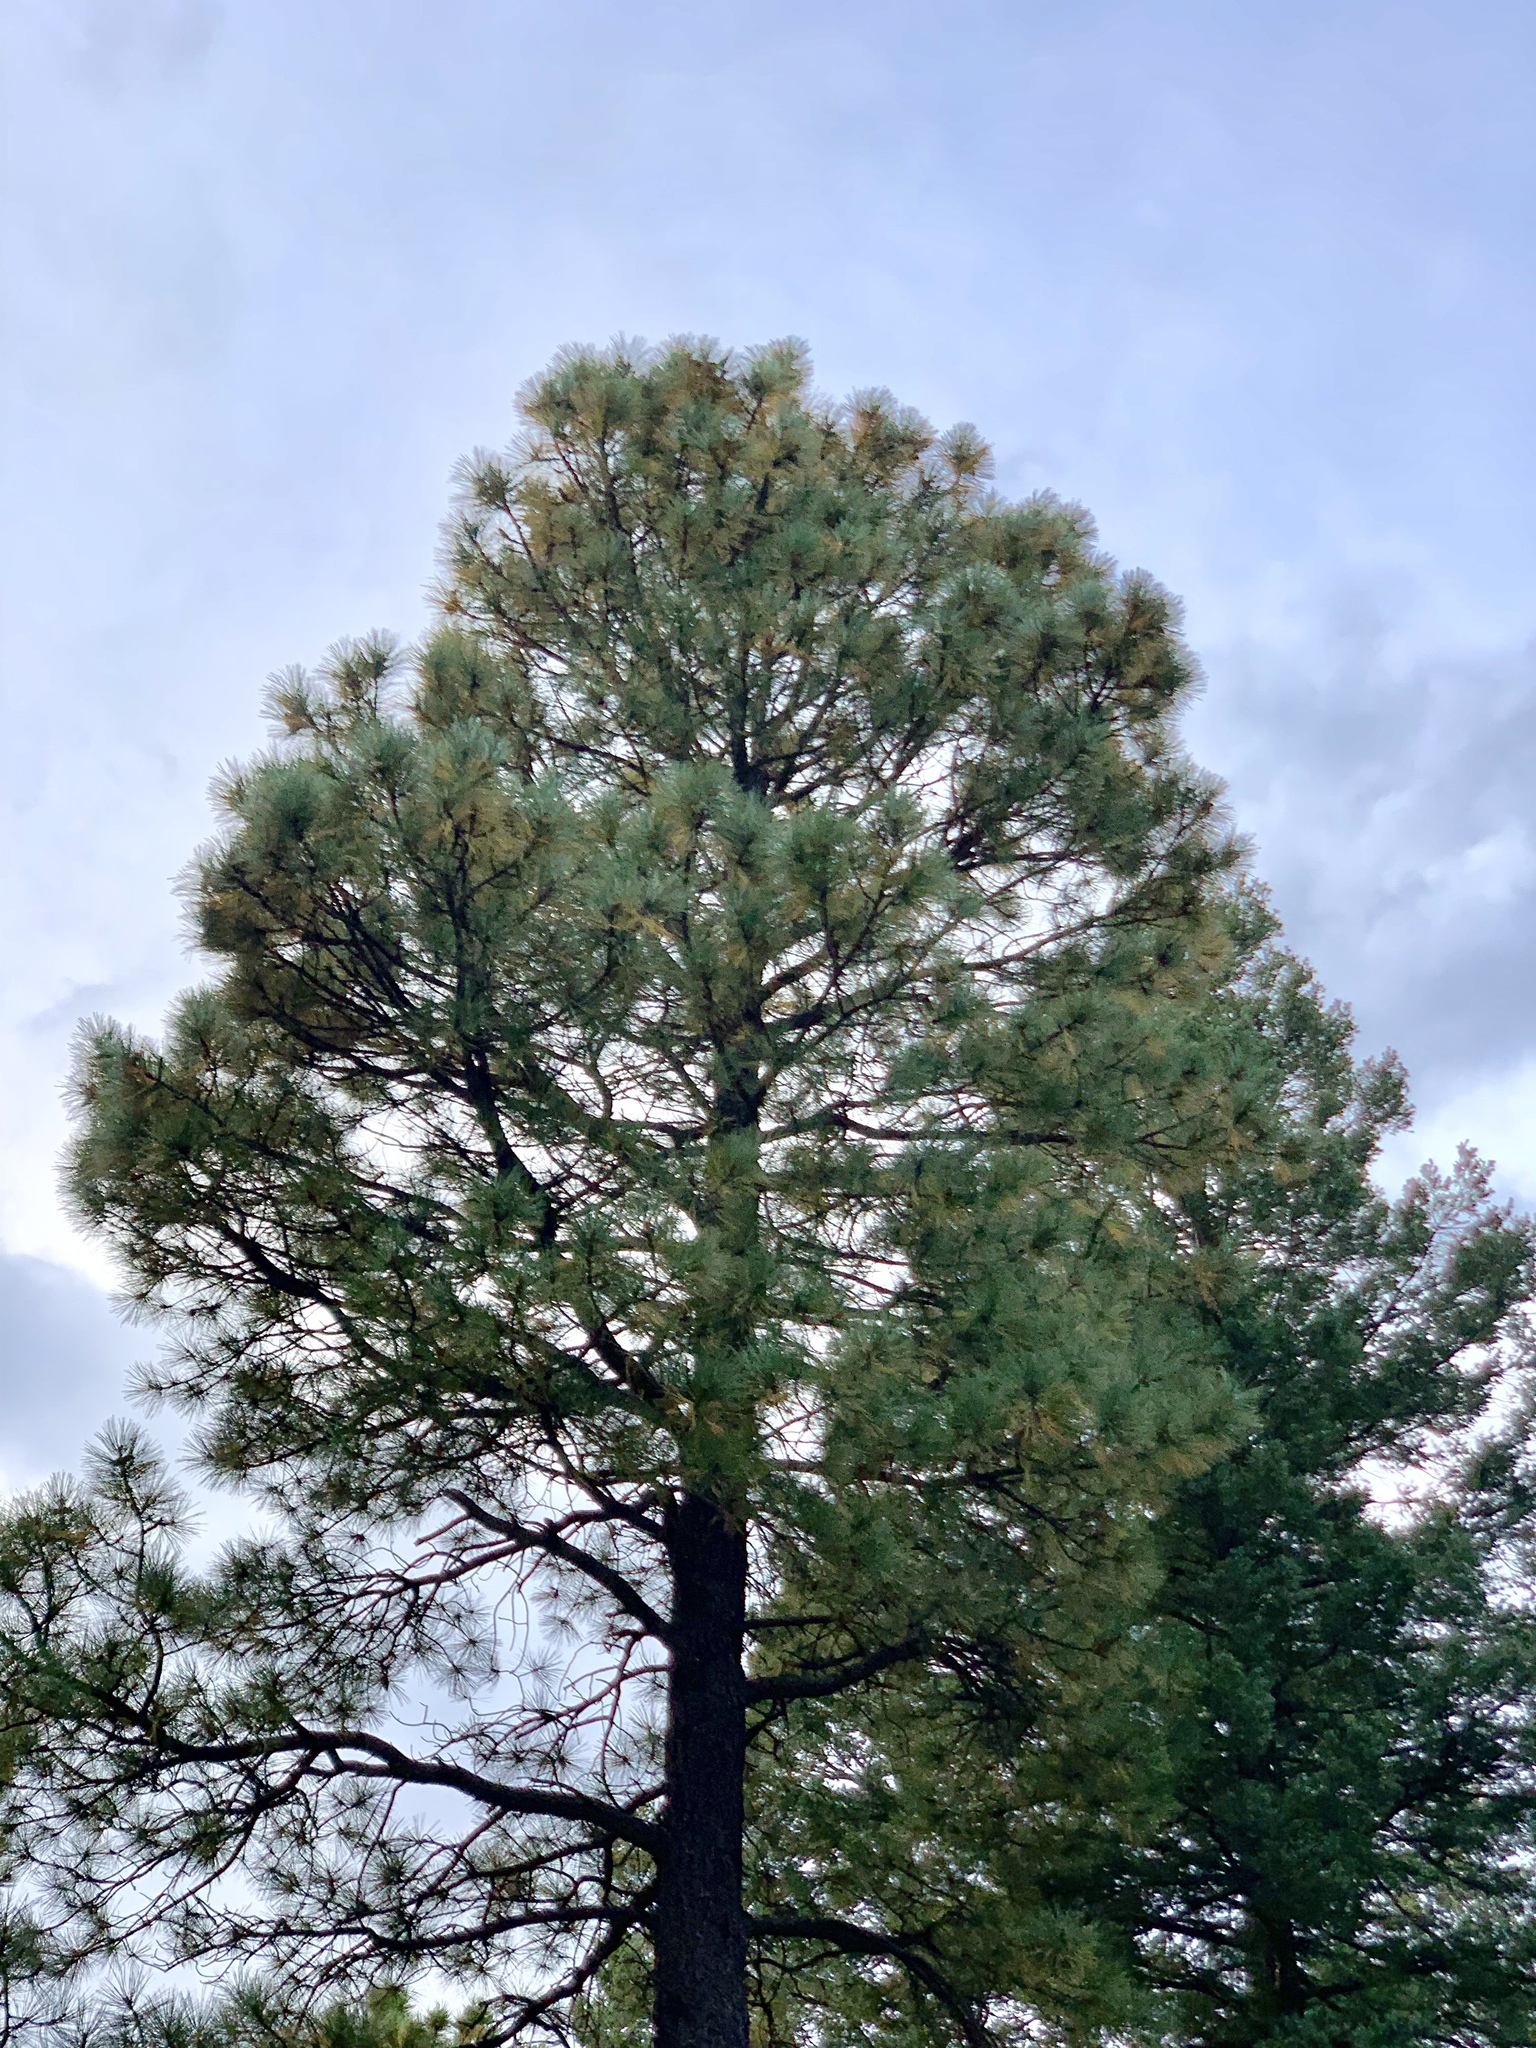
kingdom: Plantae
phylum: Tracheophyta
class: Pinopsida
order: Pinales
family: Pinaceae
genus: Pinus
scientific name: Pinus ponderosa
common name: Western yellow-pine
